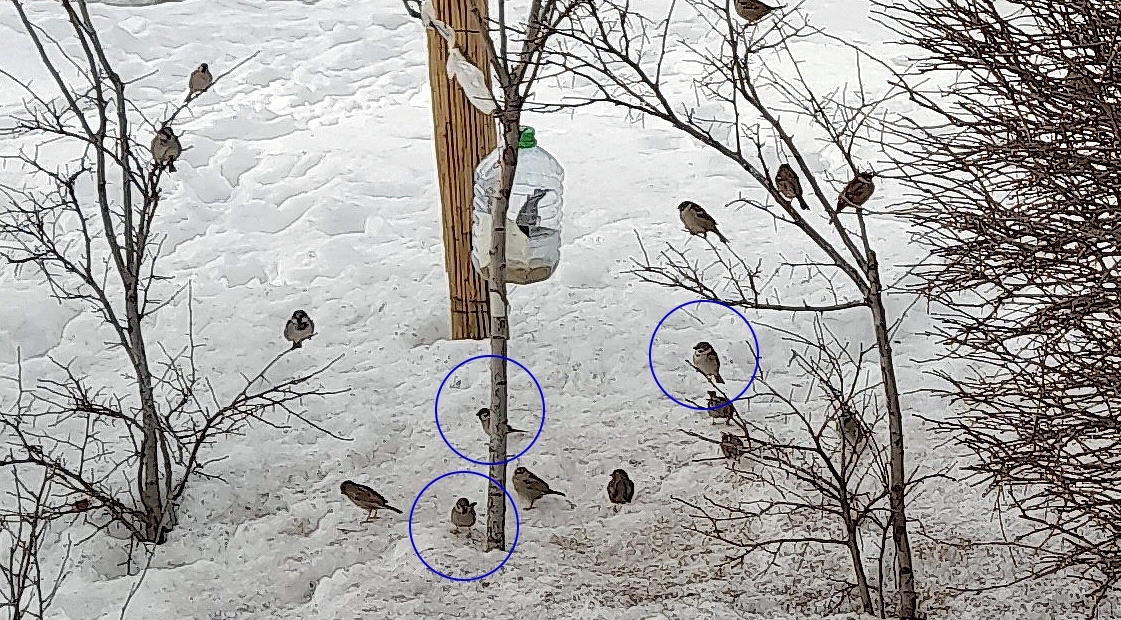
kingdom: Animalia
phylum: Chordata
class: Aves
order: Passeriformes
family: Passeridae
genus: Passer
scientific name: Passer montanus
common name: Eurasian tree sparrow
